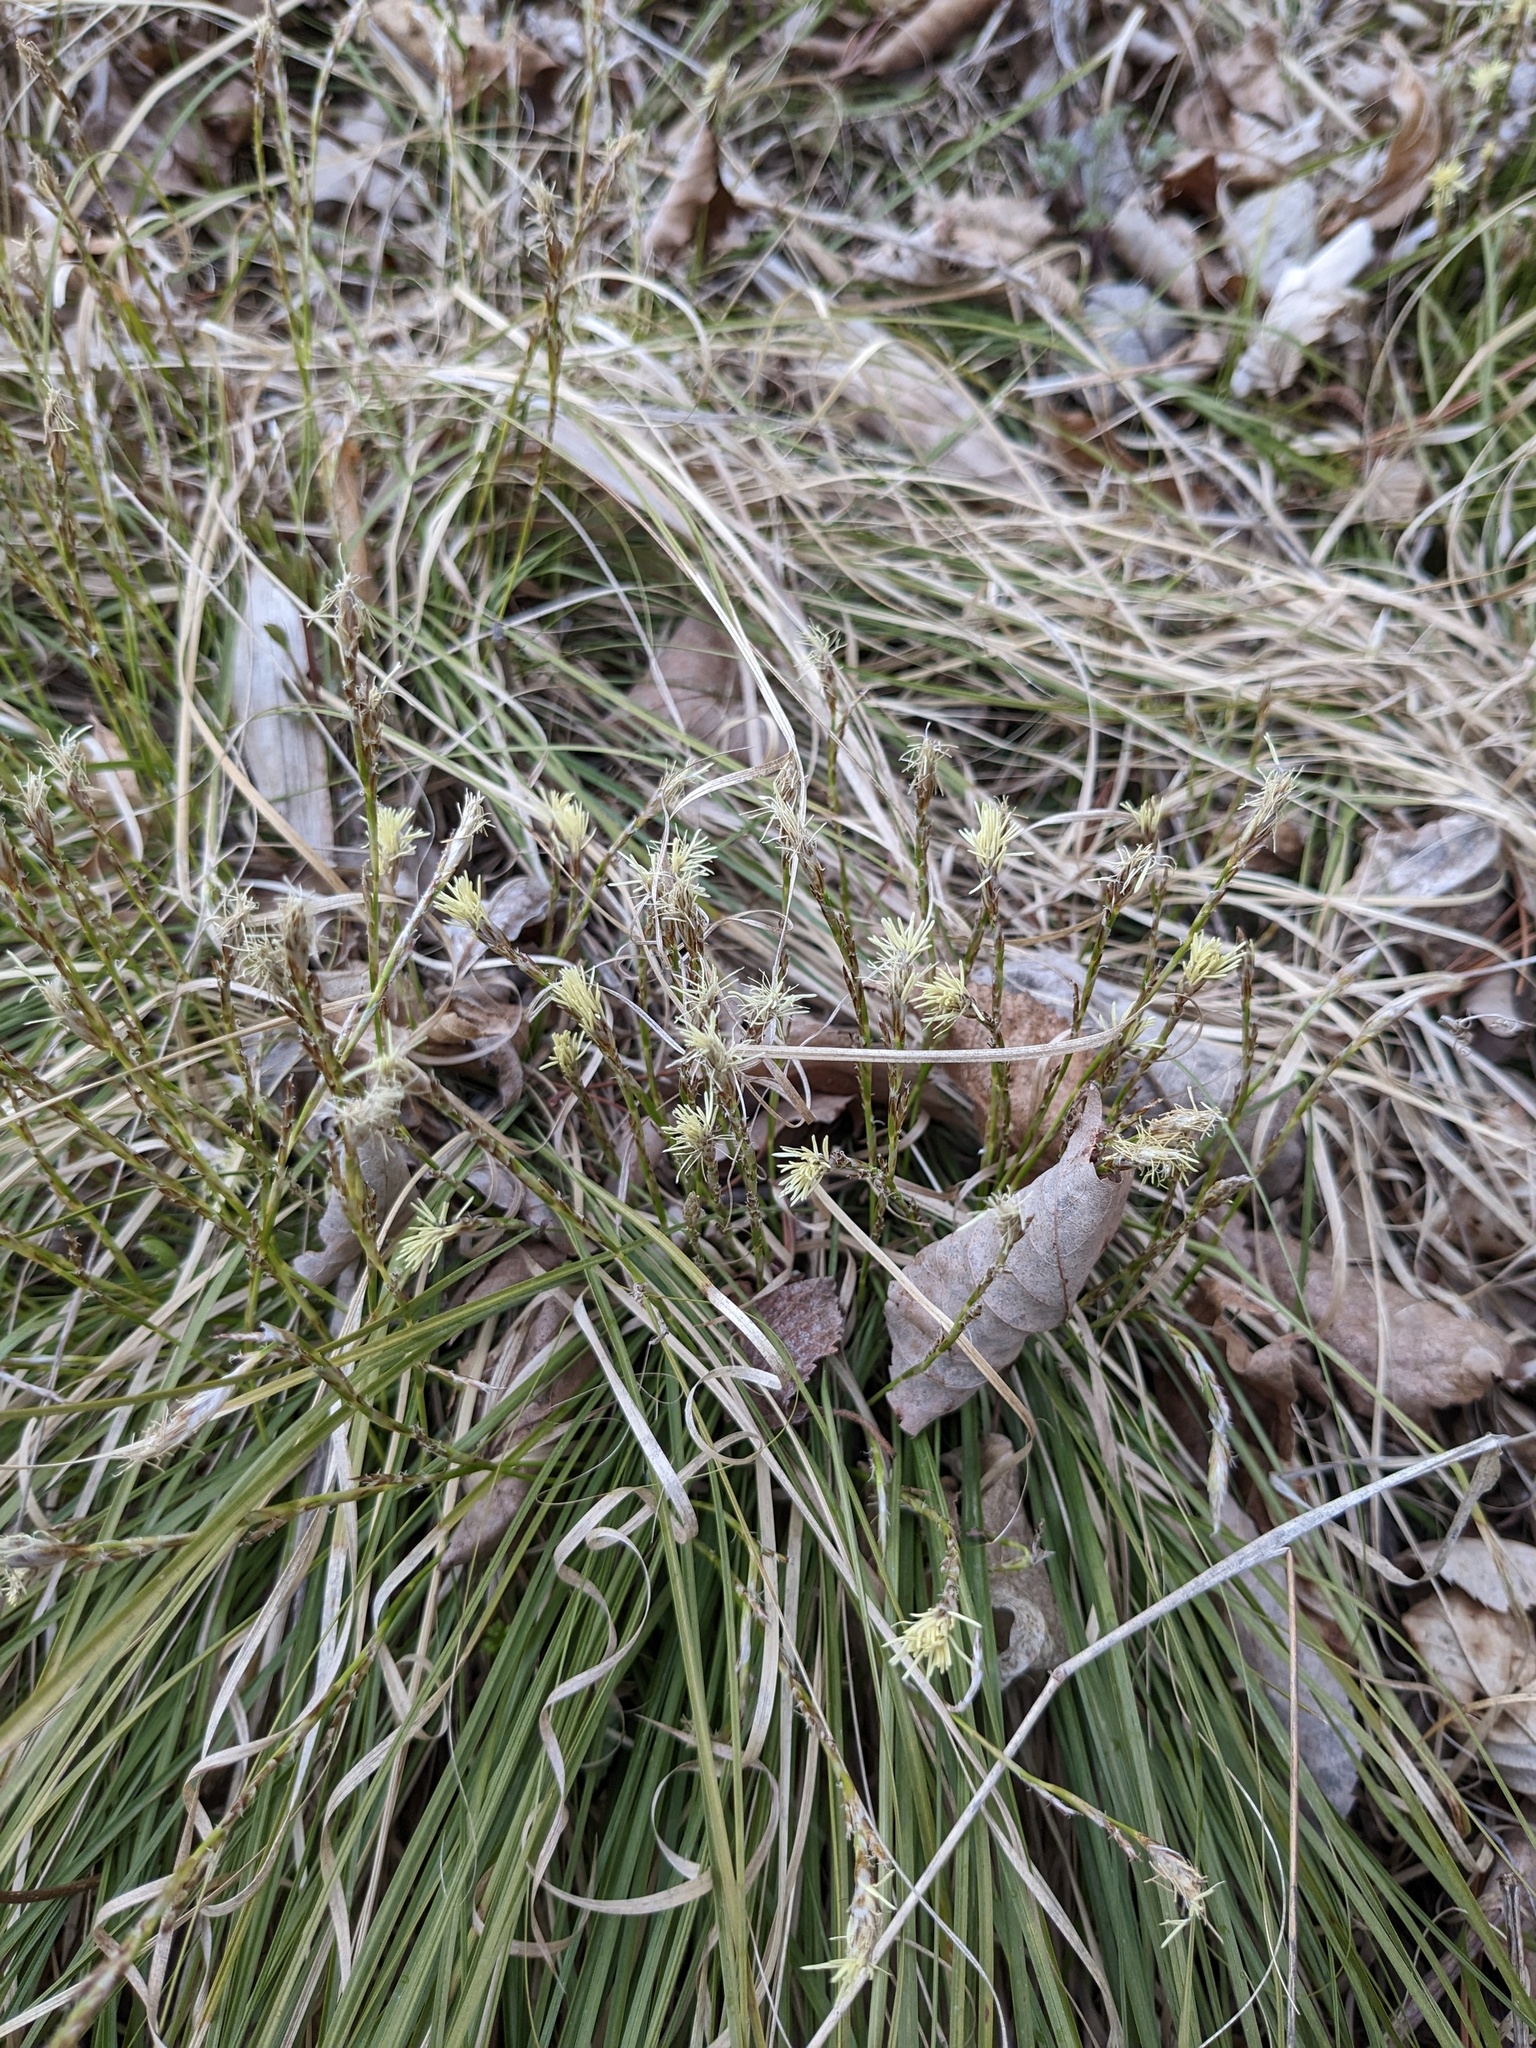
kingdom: Plantae
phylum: Tracheophyta
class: Liliopsida
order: Poales
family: Cyperaceae
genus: Carex
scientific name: Carex lanceolata
